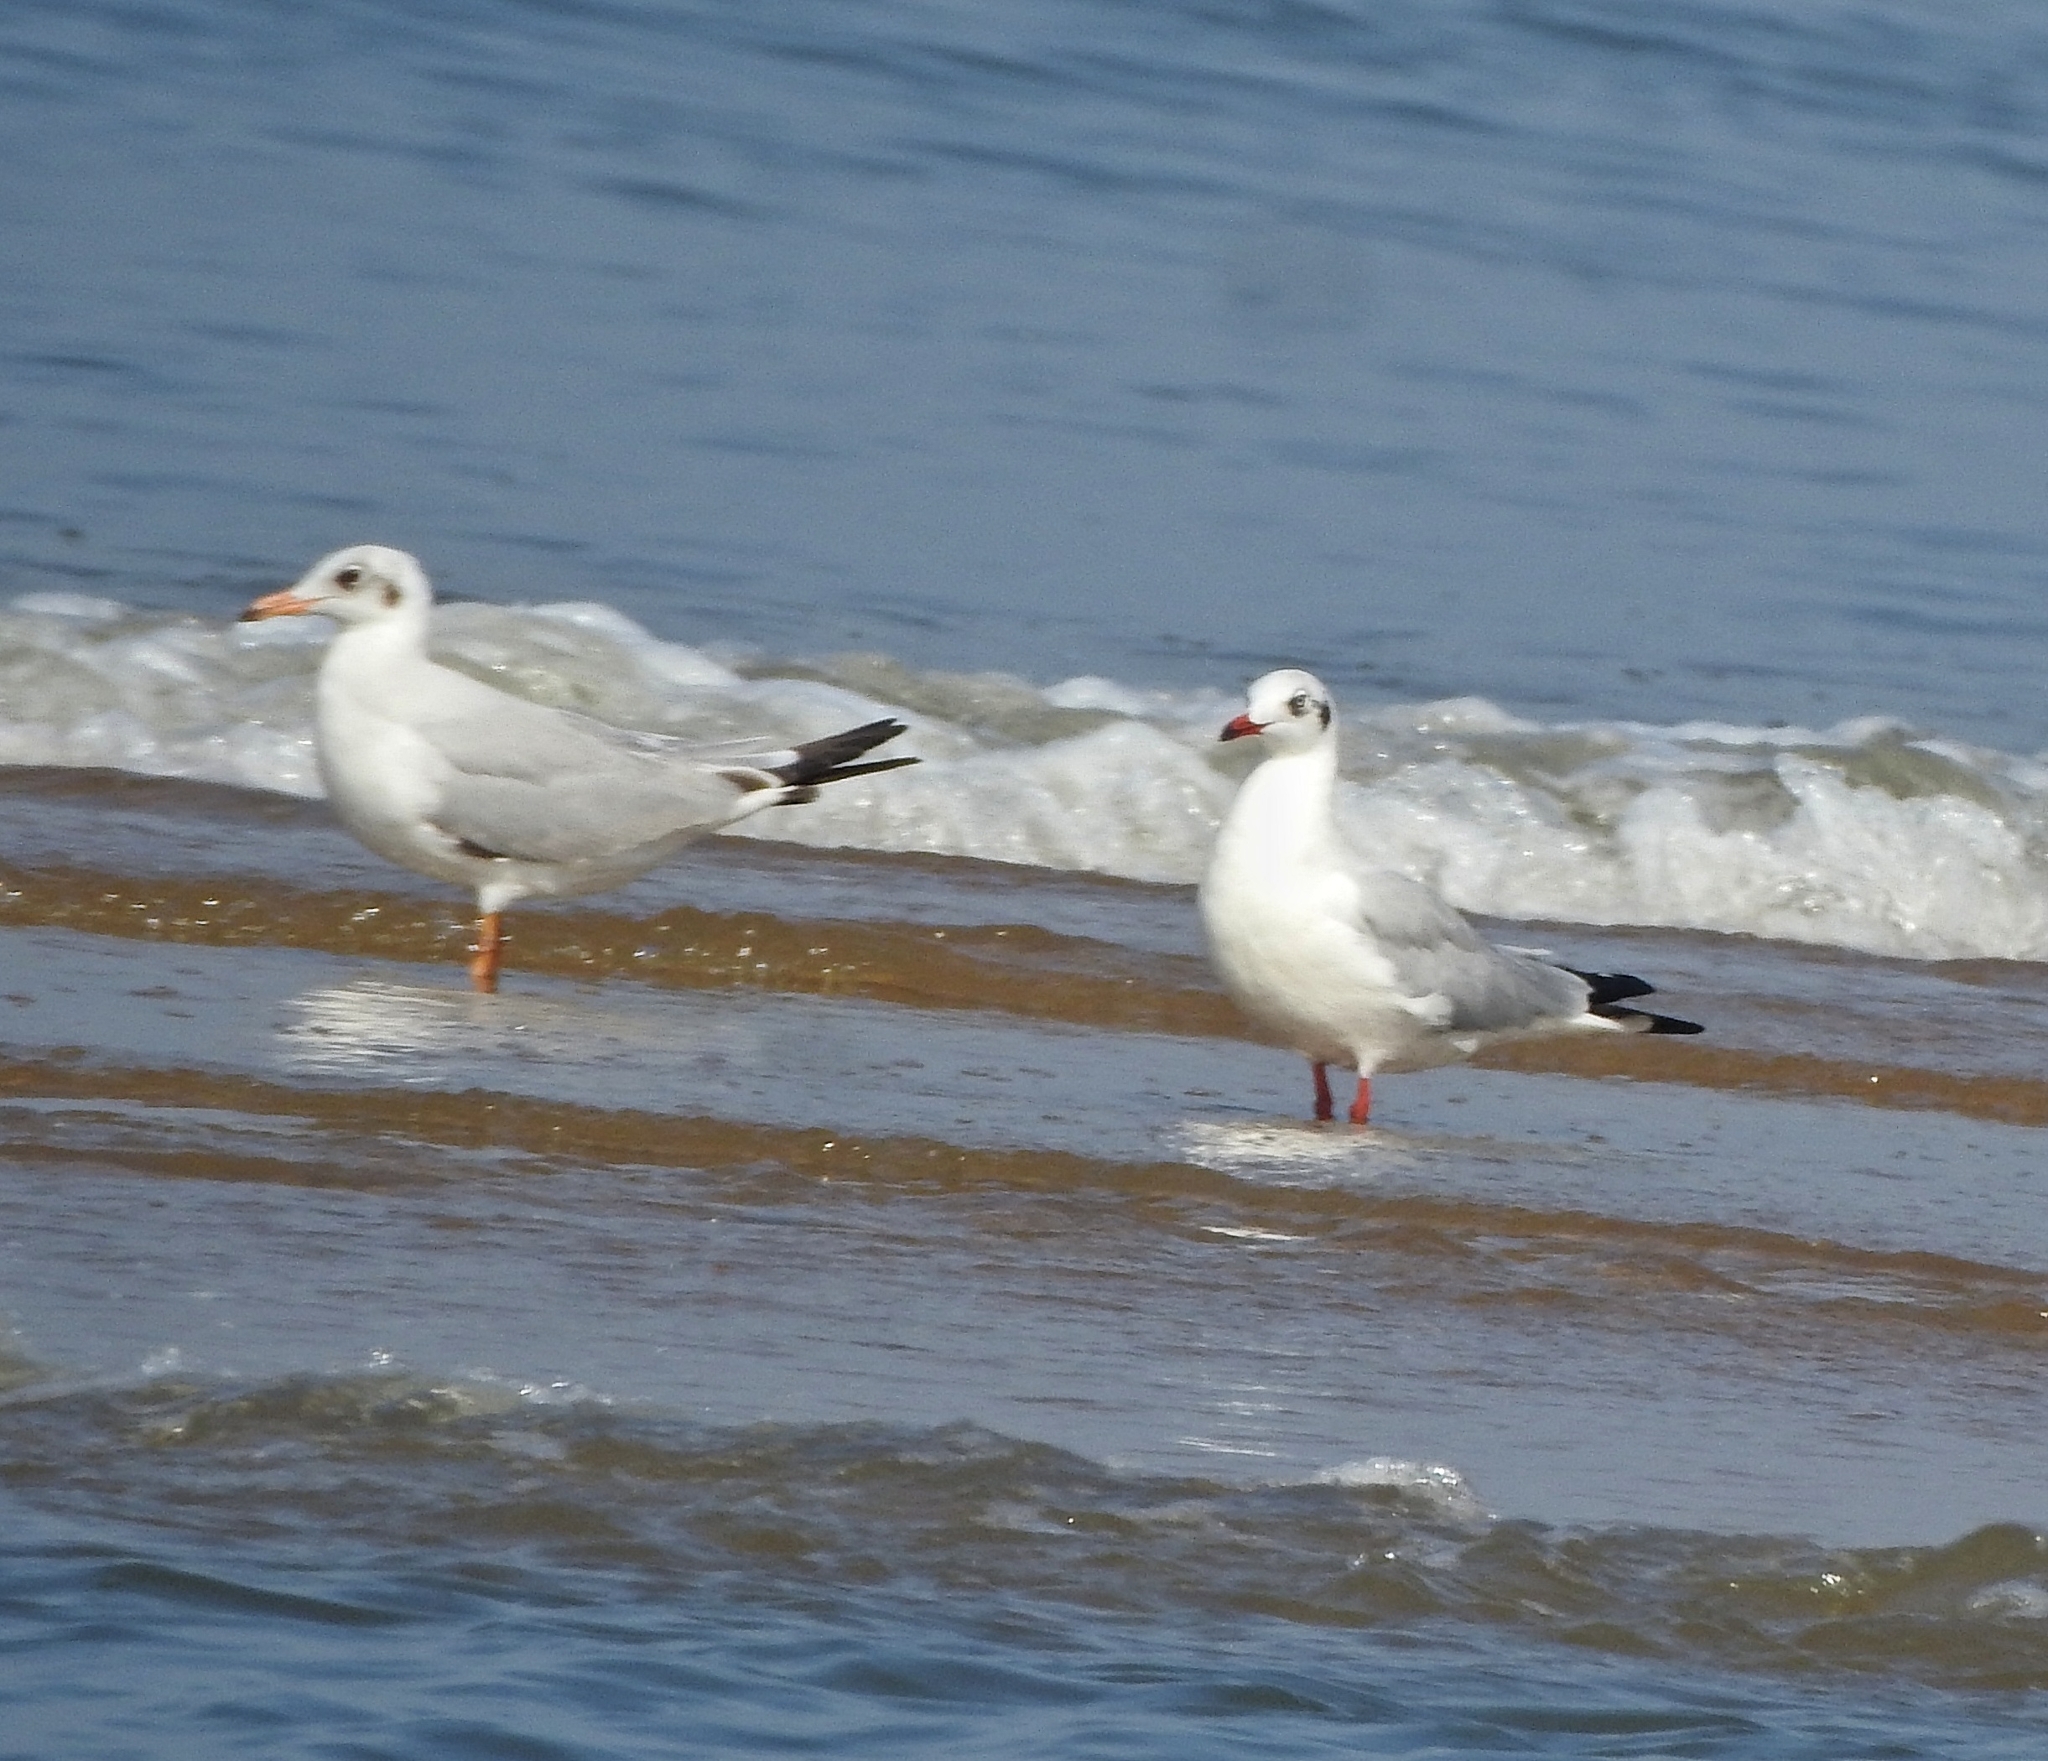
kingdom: Animalia
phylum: Chordata
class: Aves
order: Charadriiformes
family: Laridae
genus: Chroicocephalus
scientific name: Chroicocephalus brunnicephalus
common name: Brown-headed gull
